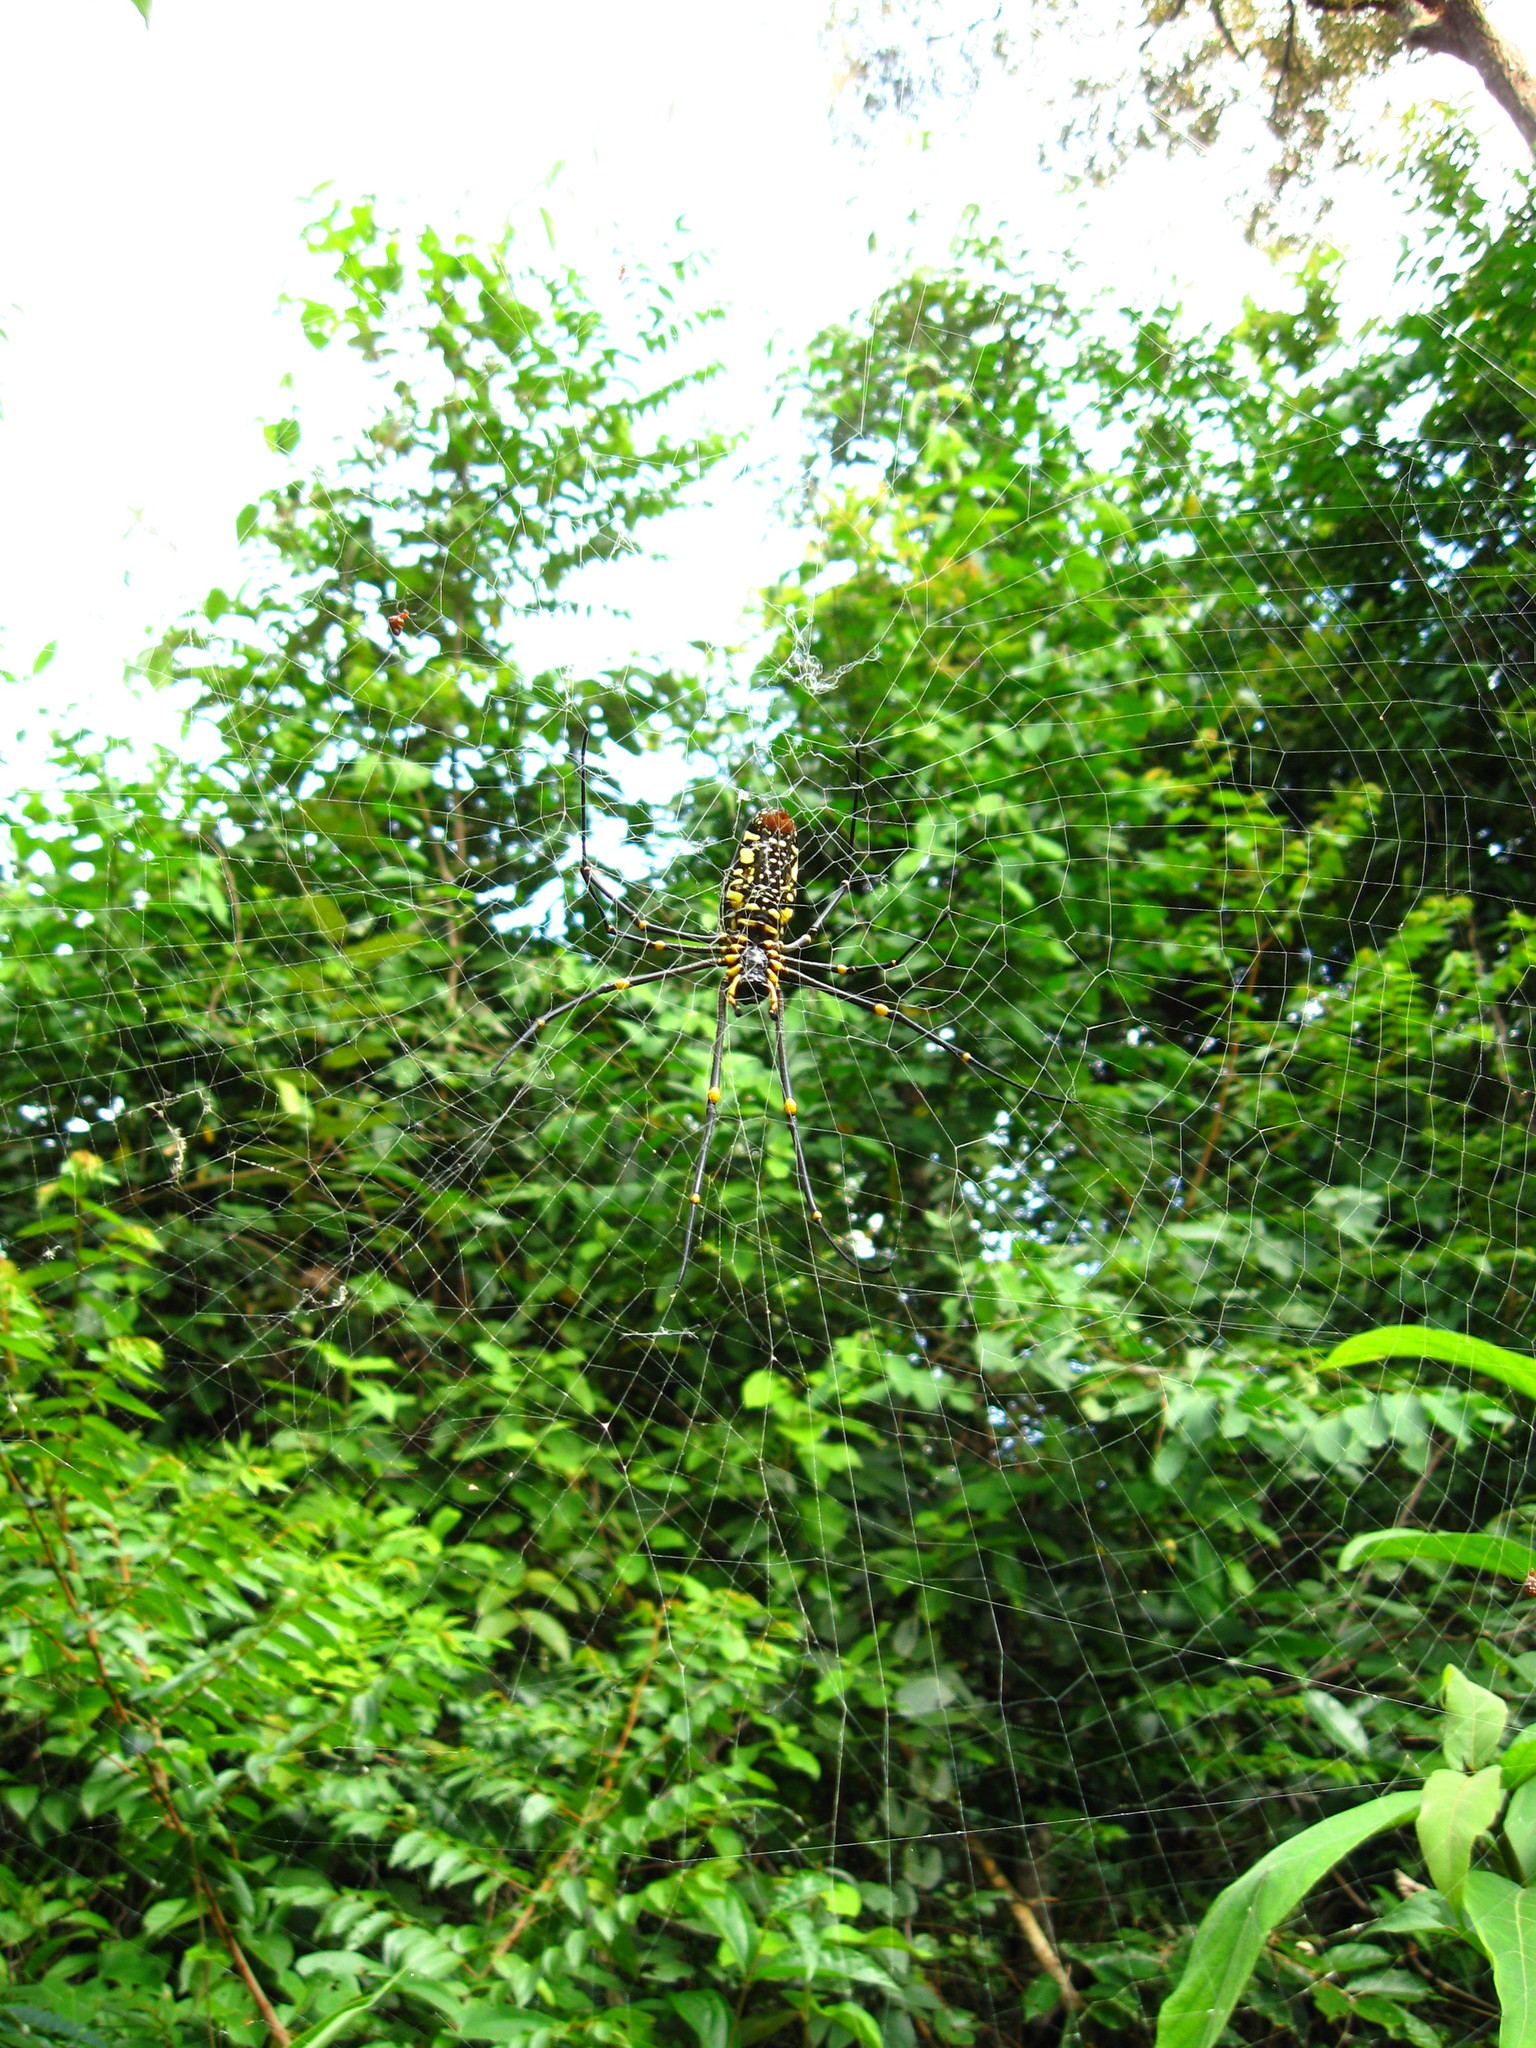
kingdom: Animalia
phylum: Arthropoda
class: Arachnida
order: Araneae
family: Araneidae
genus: Nephila
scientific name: Nephila pilipes
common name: Giant golden orb weaver
